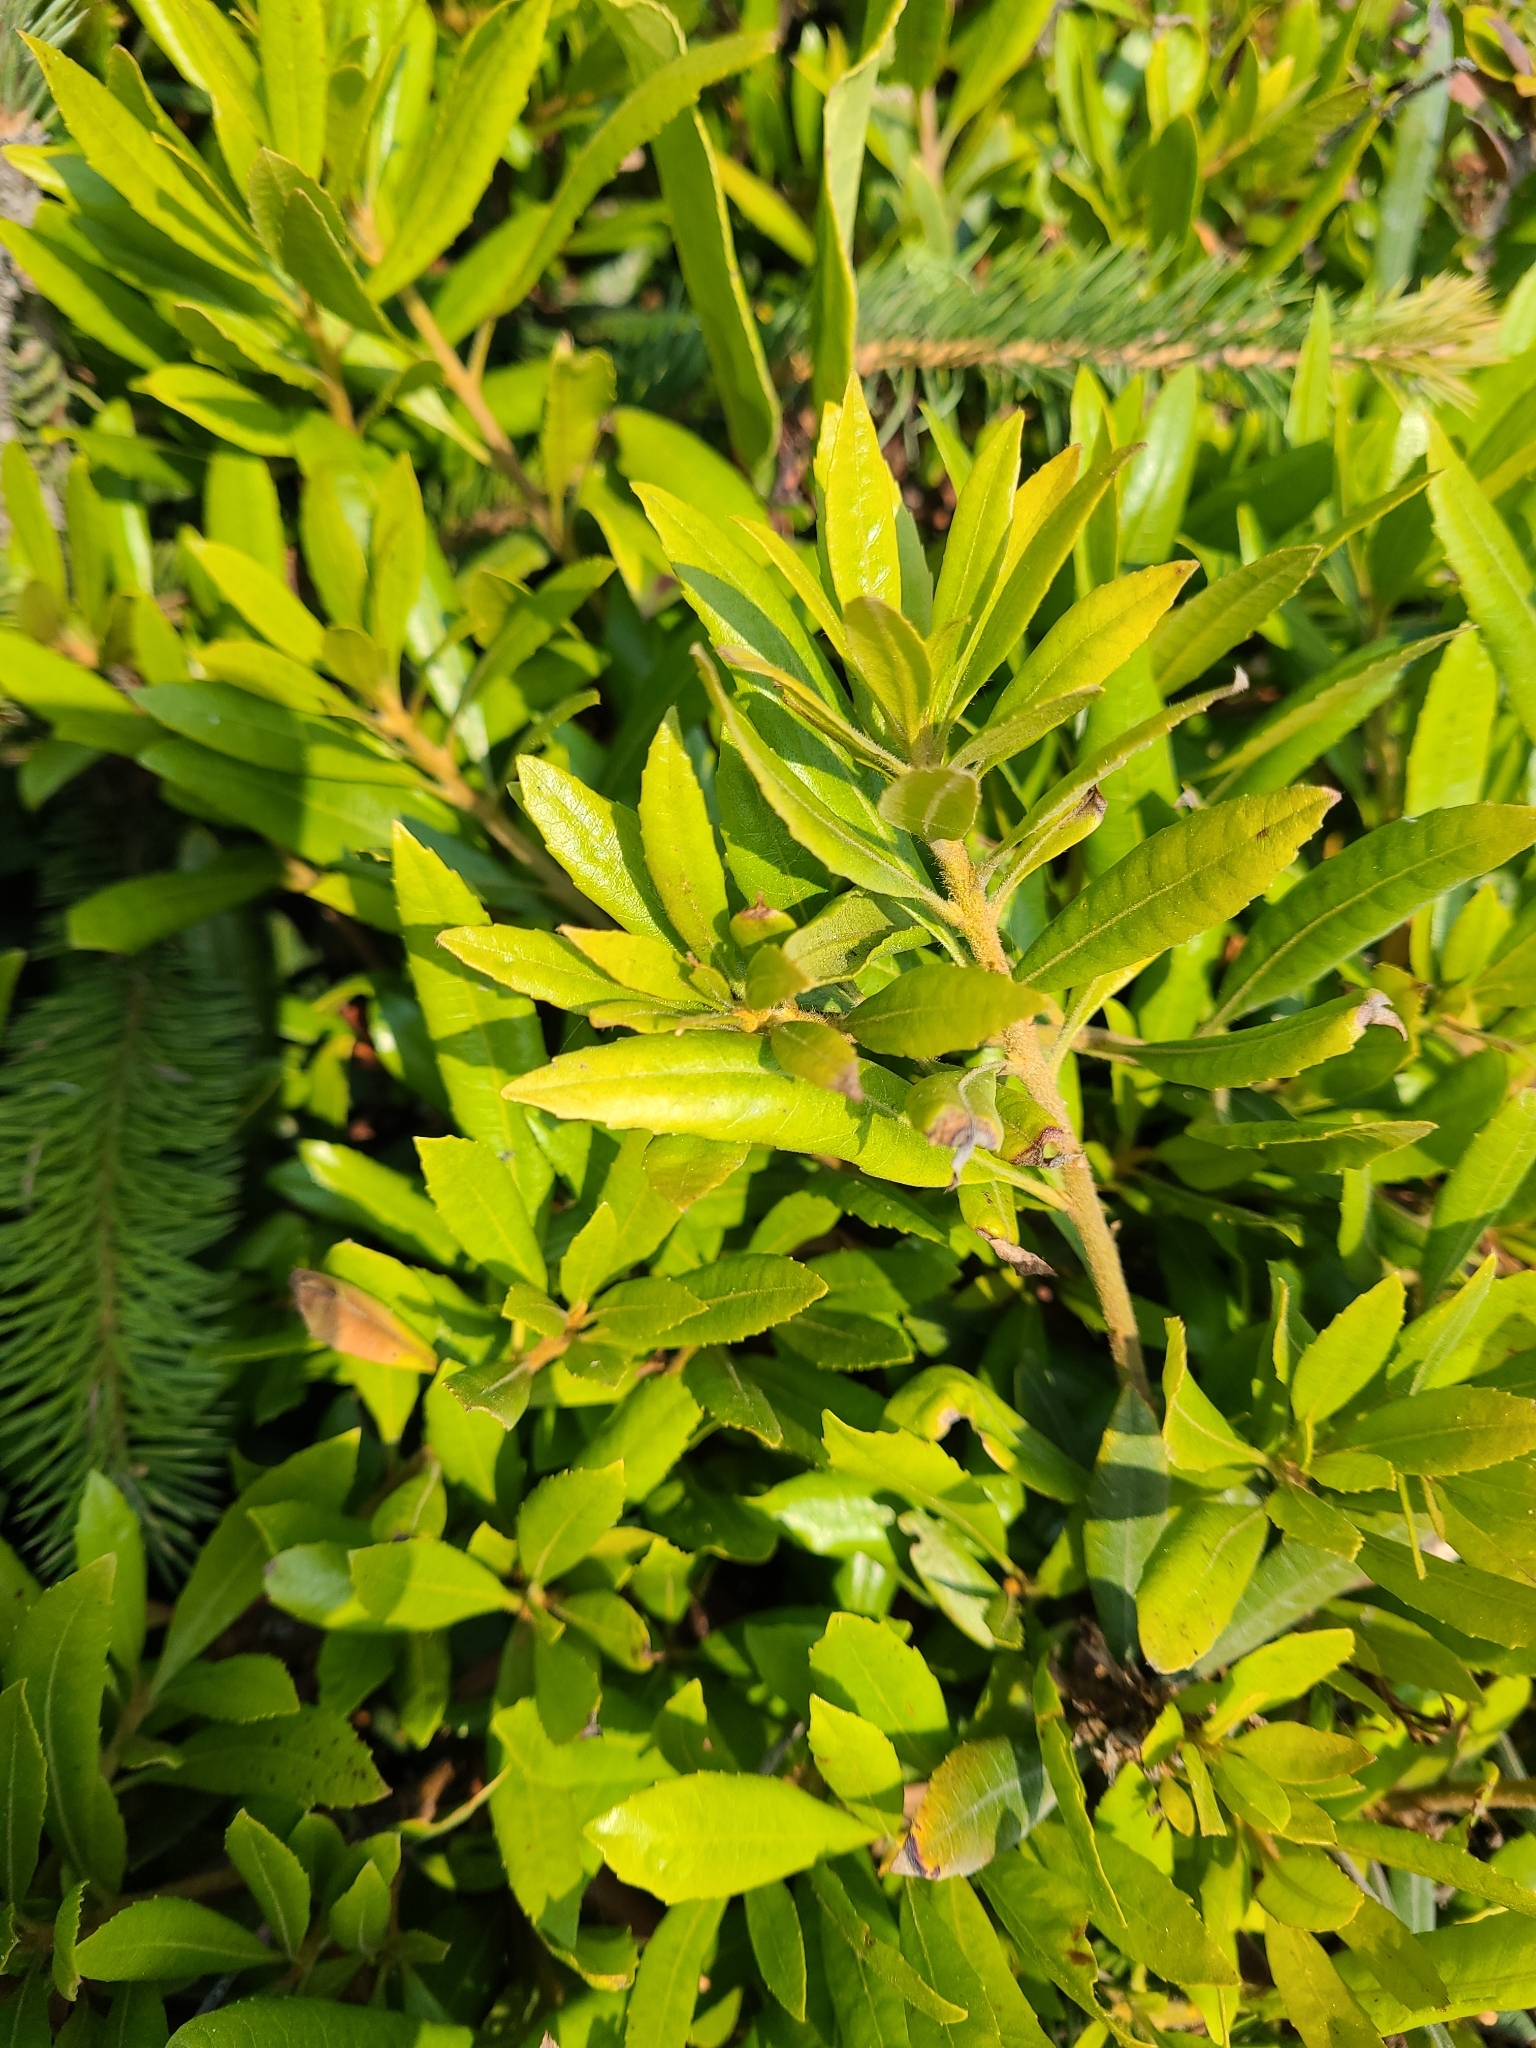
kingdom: Plantae
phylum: Tracheophyta
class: Magnoliopsida
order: Fagales
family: Myricaceae
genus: Morella
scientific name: Morella californica
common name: California wax-myrtle
